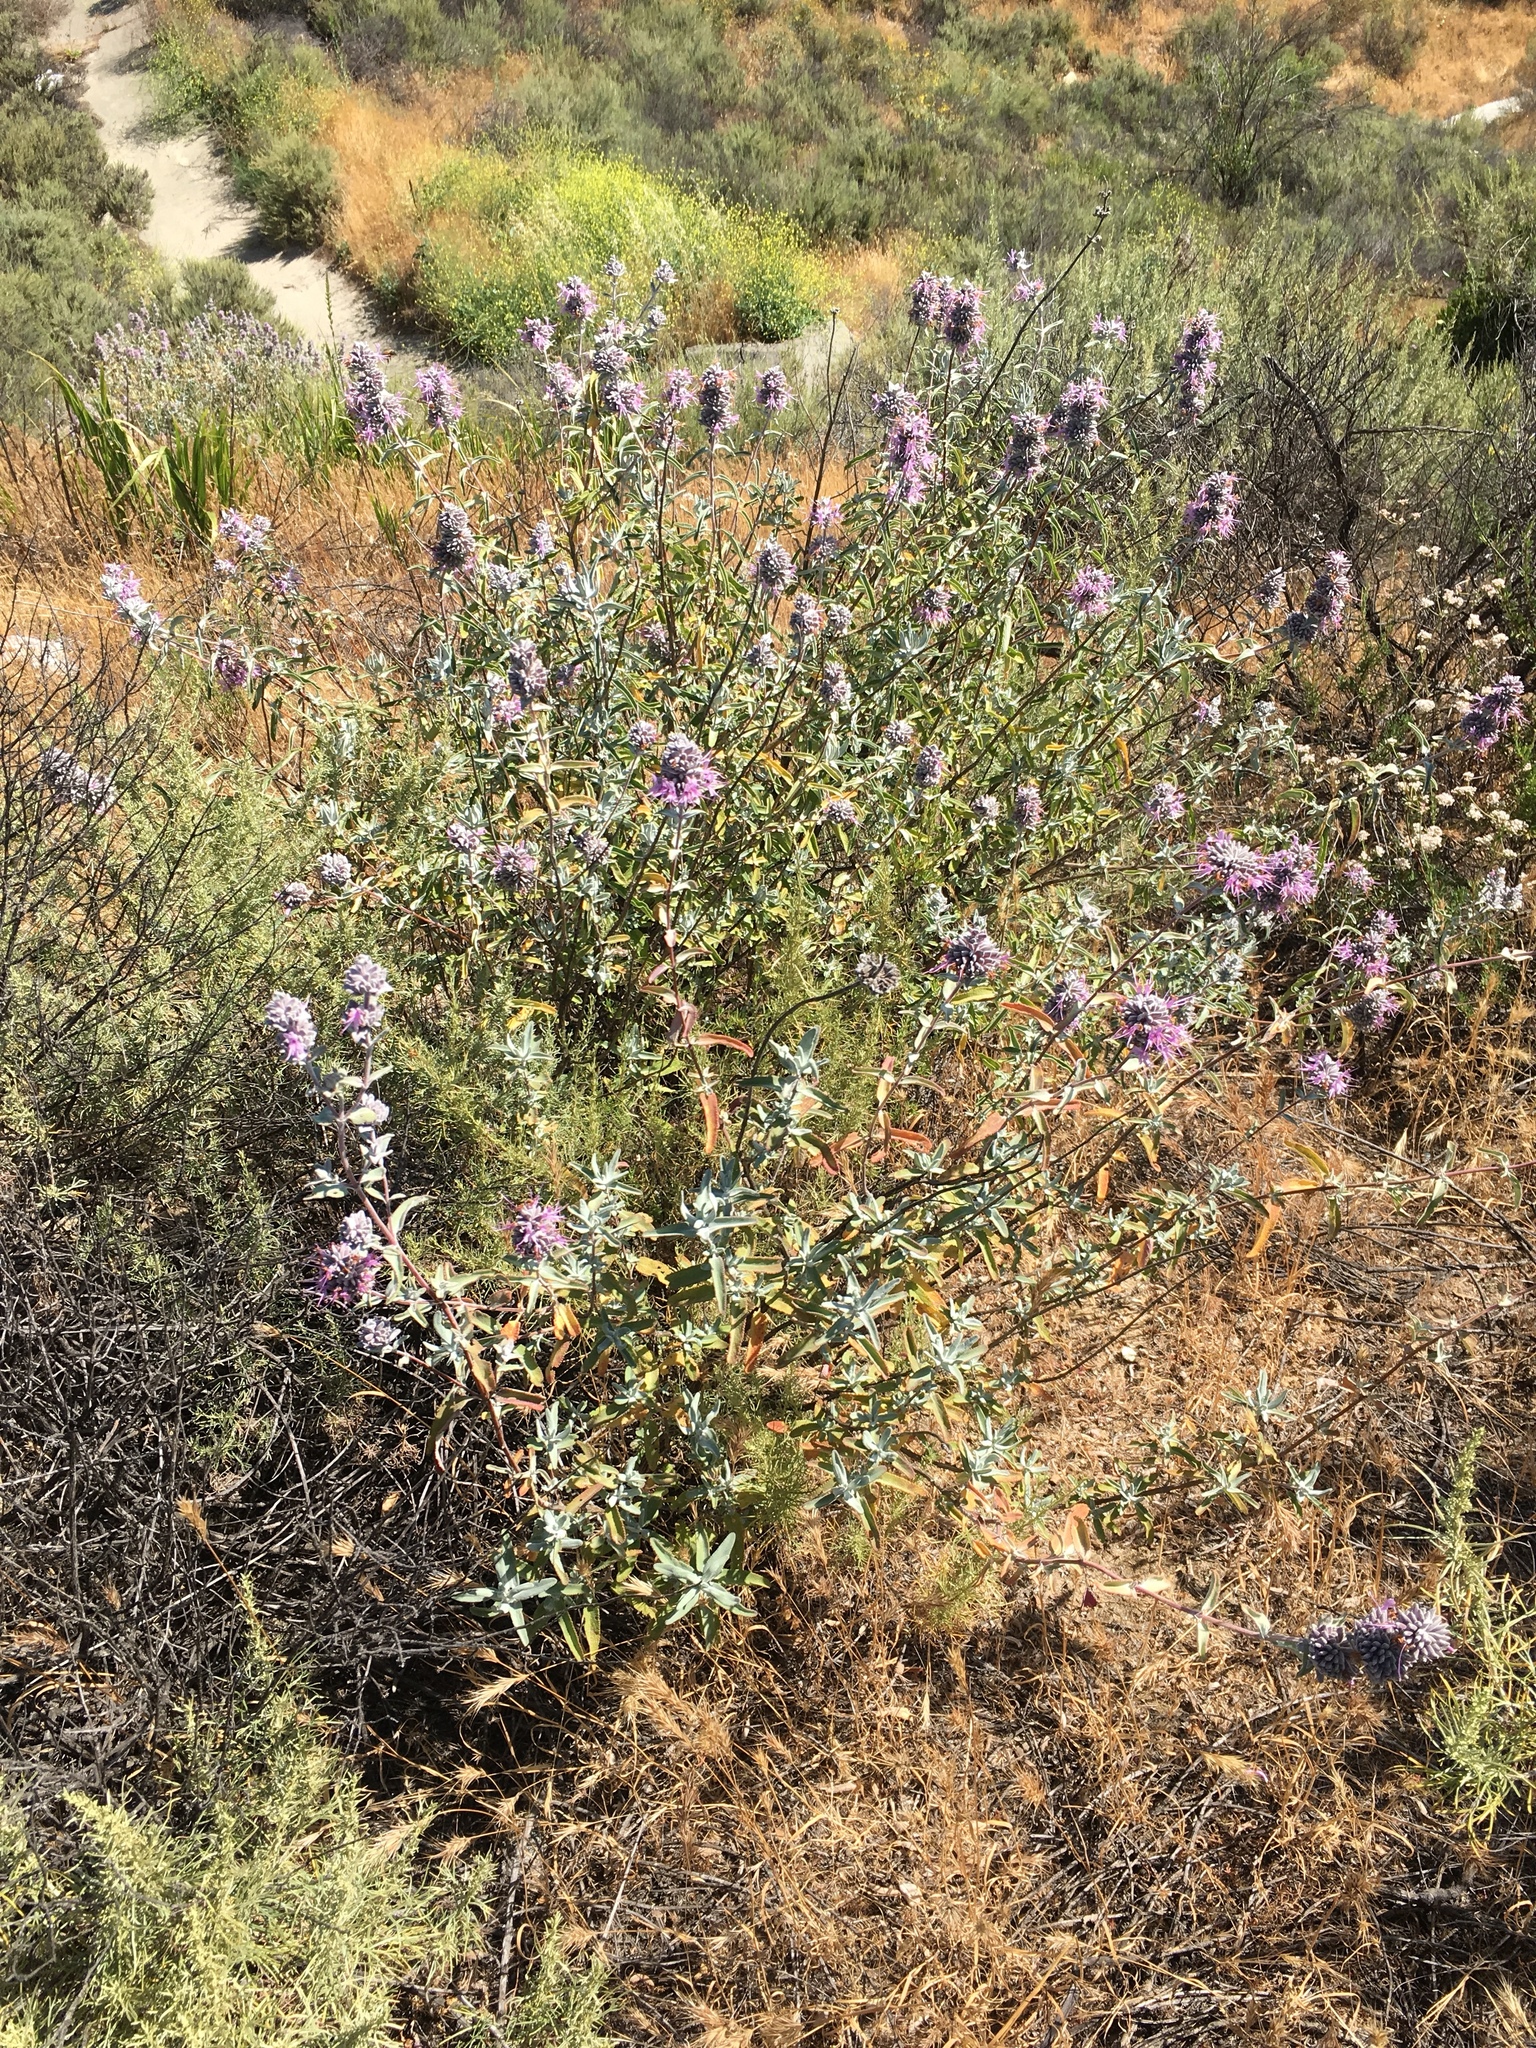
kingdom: Plantae
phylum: Tracheophyta
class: Magnoliopsida
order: Lamiales
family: Lamiaceae
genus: Salvia
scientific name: Salvia leucophylla
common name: Purple sage
